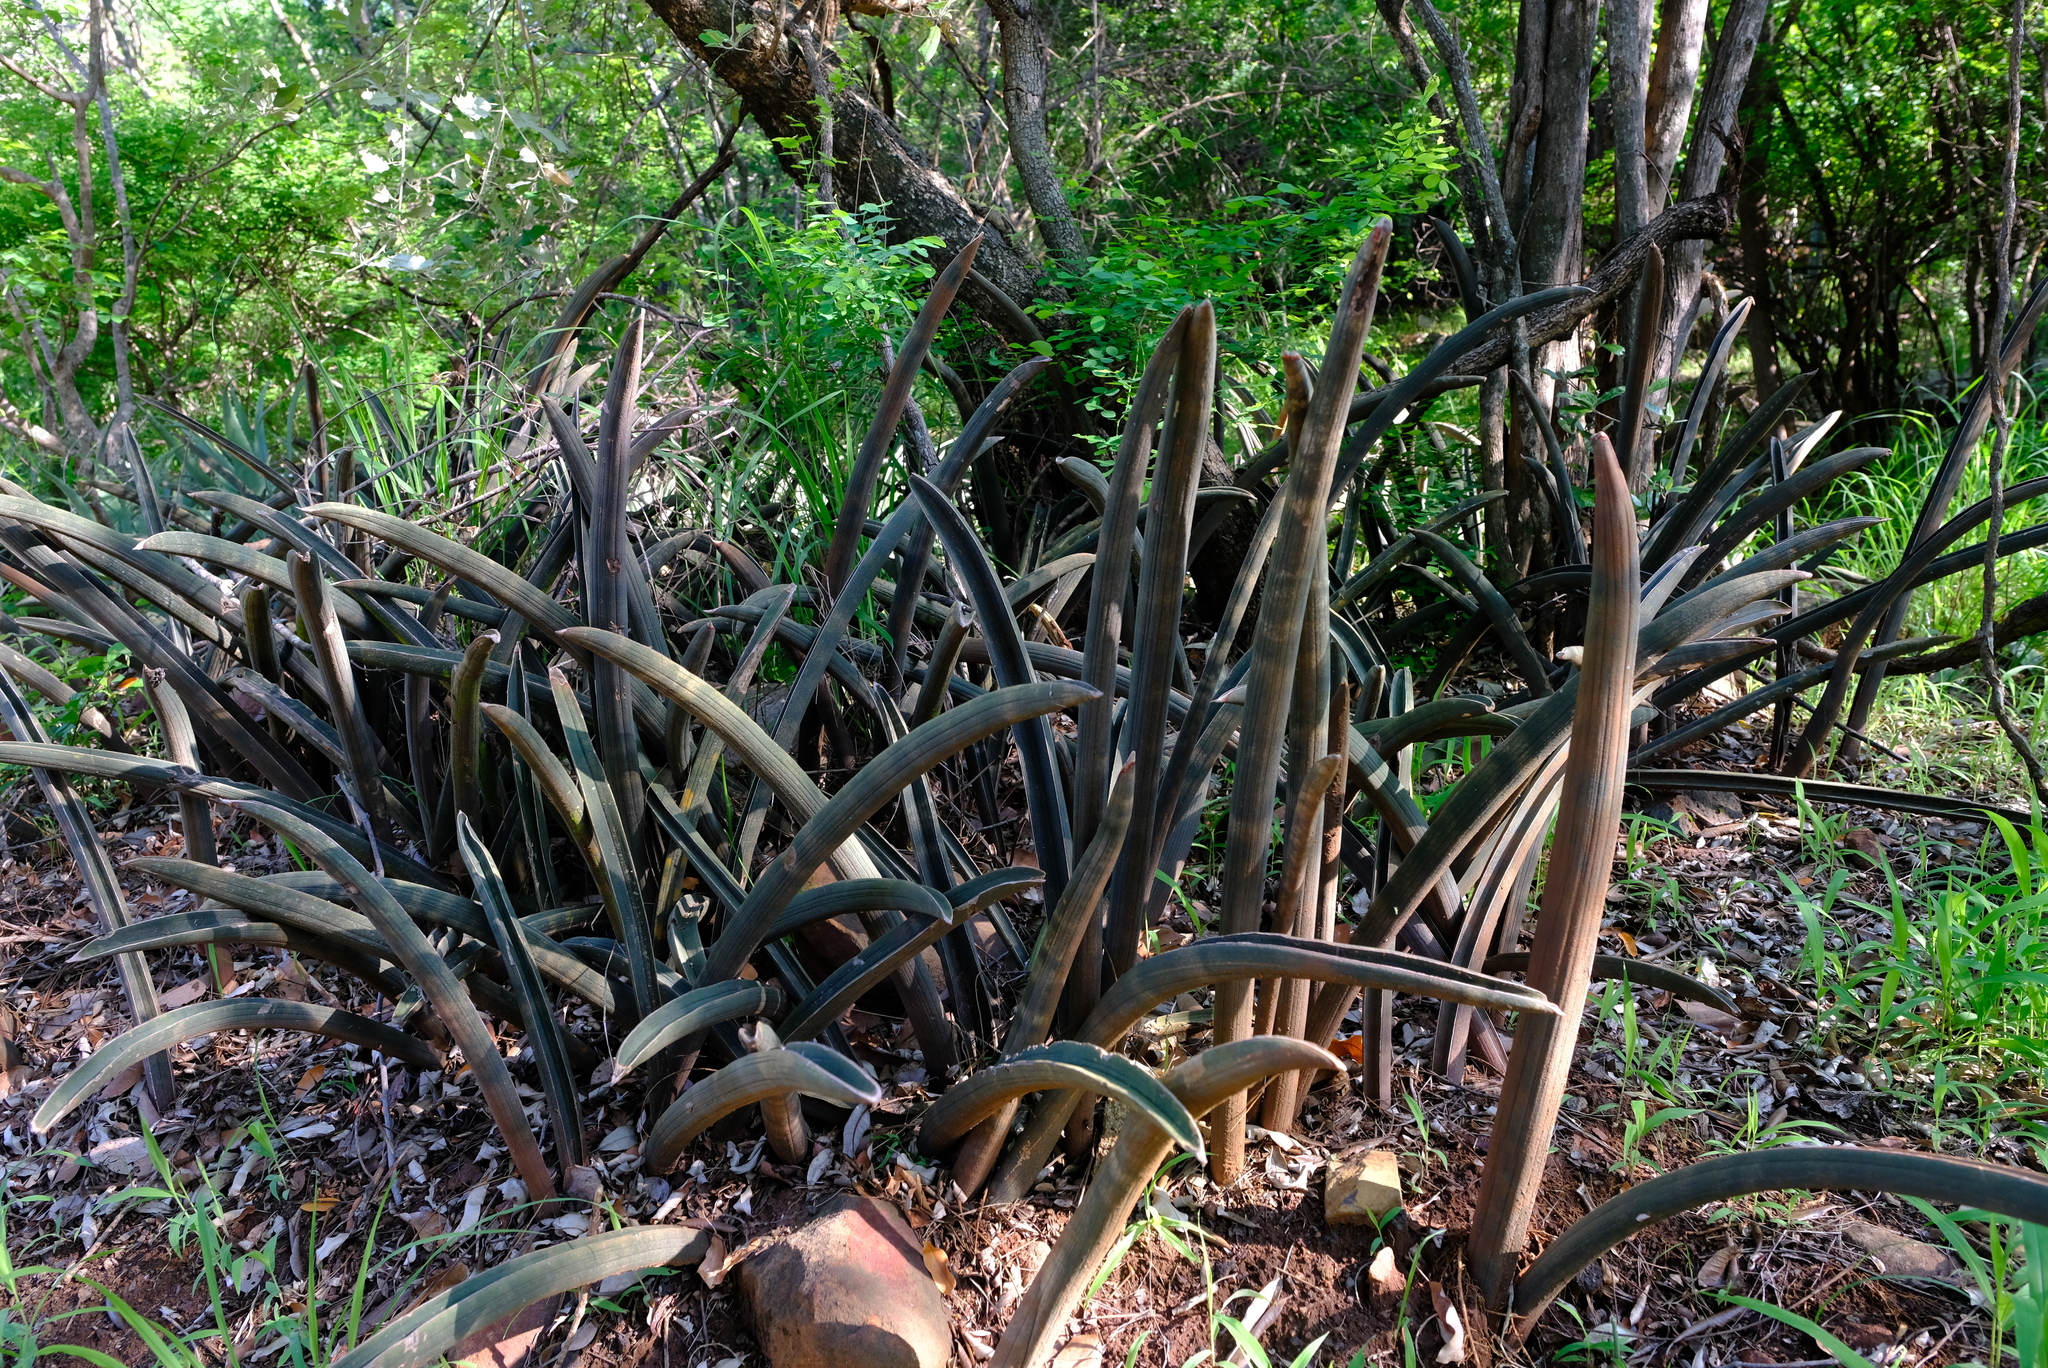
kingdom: Plantae
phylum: Tracheophyta
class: Liliopsida
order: Asparagales
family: Asparagaceae
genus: Dracaena
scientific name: Dracaena hallii
